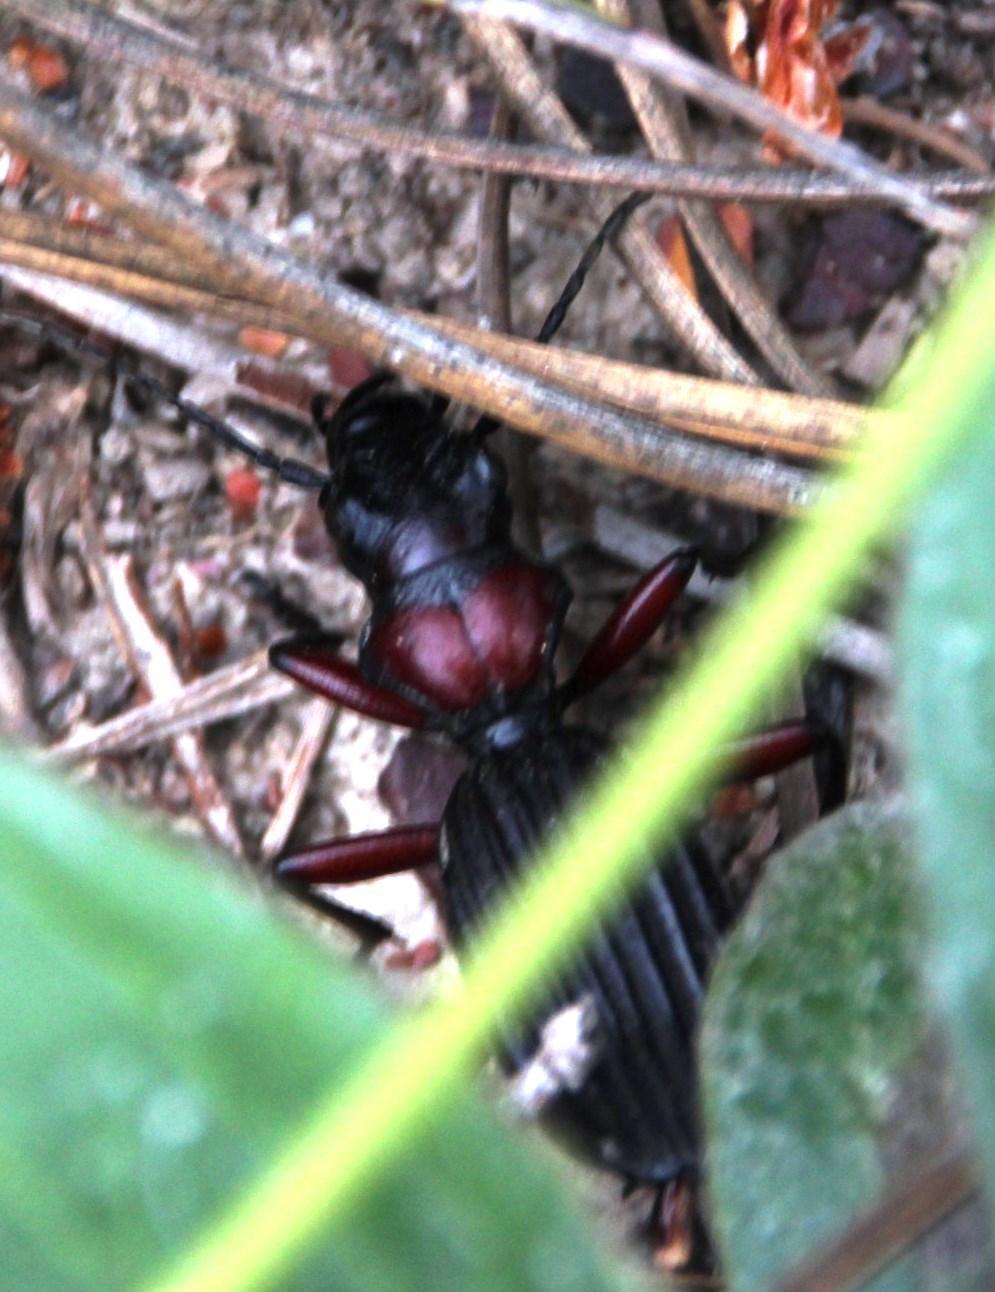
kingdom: Animalia
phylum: Arthropoda
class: Insecta
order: Coleoptera
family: Carabidae
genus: Anthia
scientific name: Anthia decemguttata
